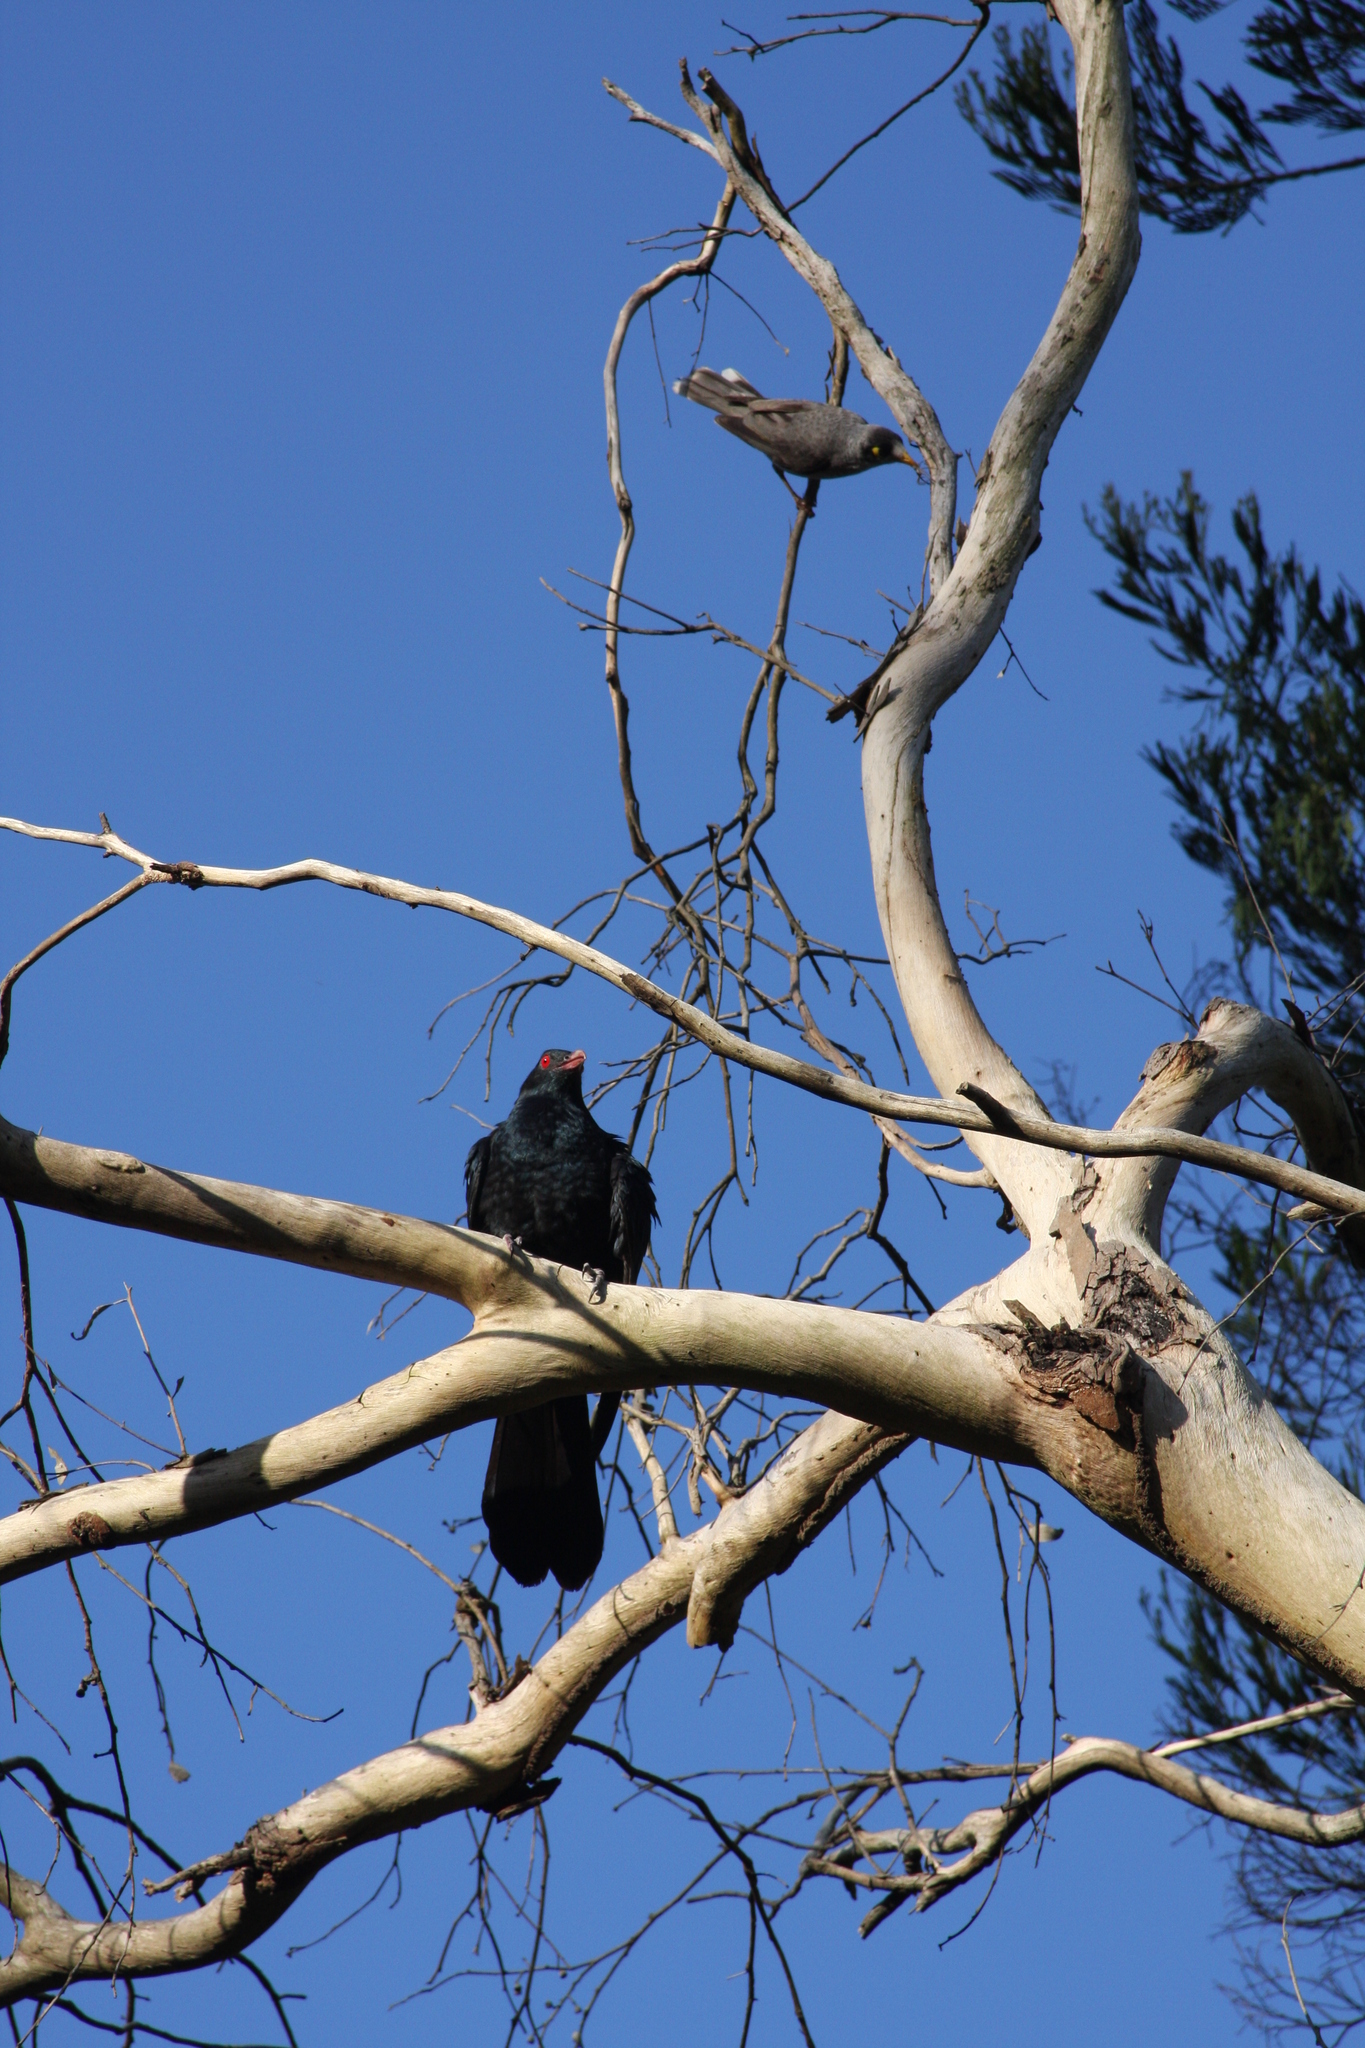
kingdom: Animalia
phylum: Chordata
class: Aves
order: Cuculiformes
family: Cuculidae
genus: Eudynamys
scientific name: Eudynamys orientalis
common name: Pacific koel
